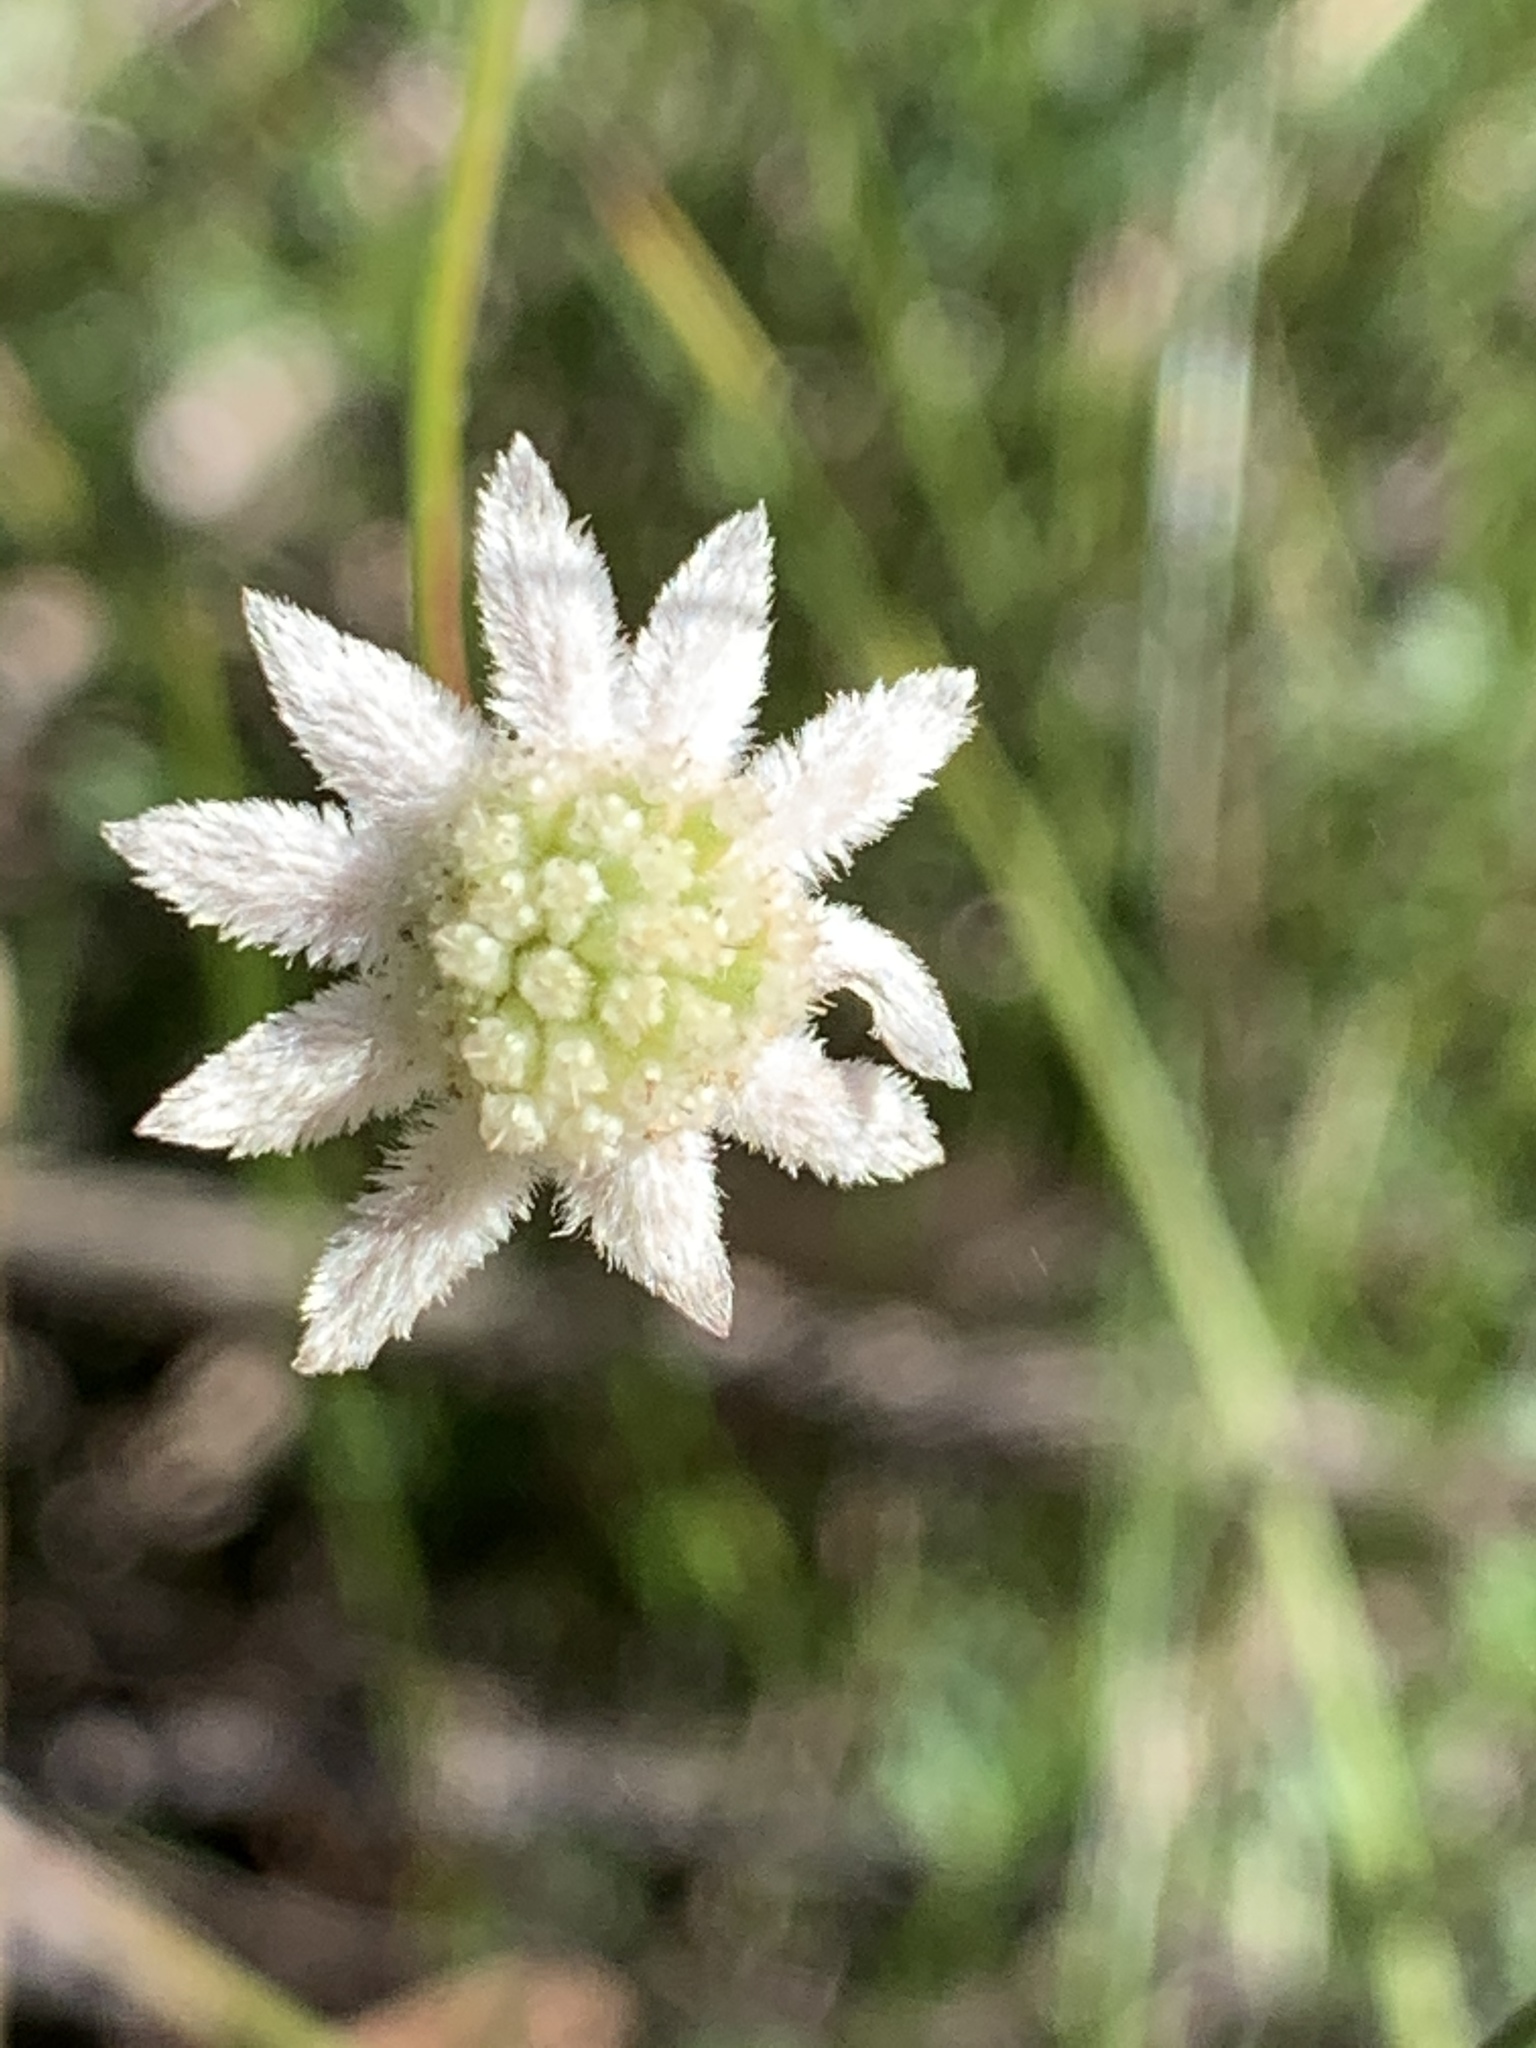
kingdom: Plantae
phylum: Tracheophyta
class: Magnoliopsida
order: Apiales
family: Apiaceae
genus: Actinotus
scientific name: Actinotus minor
